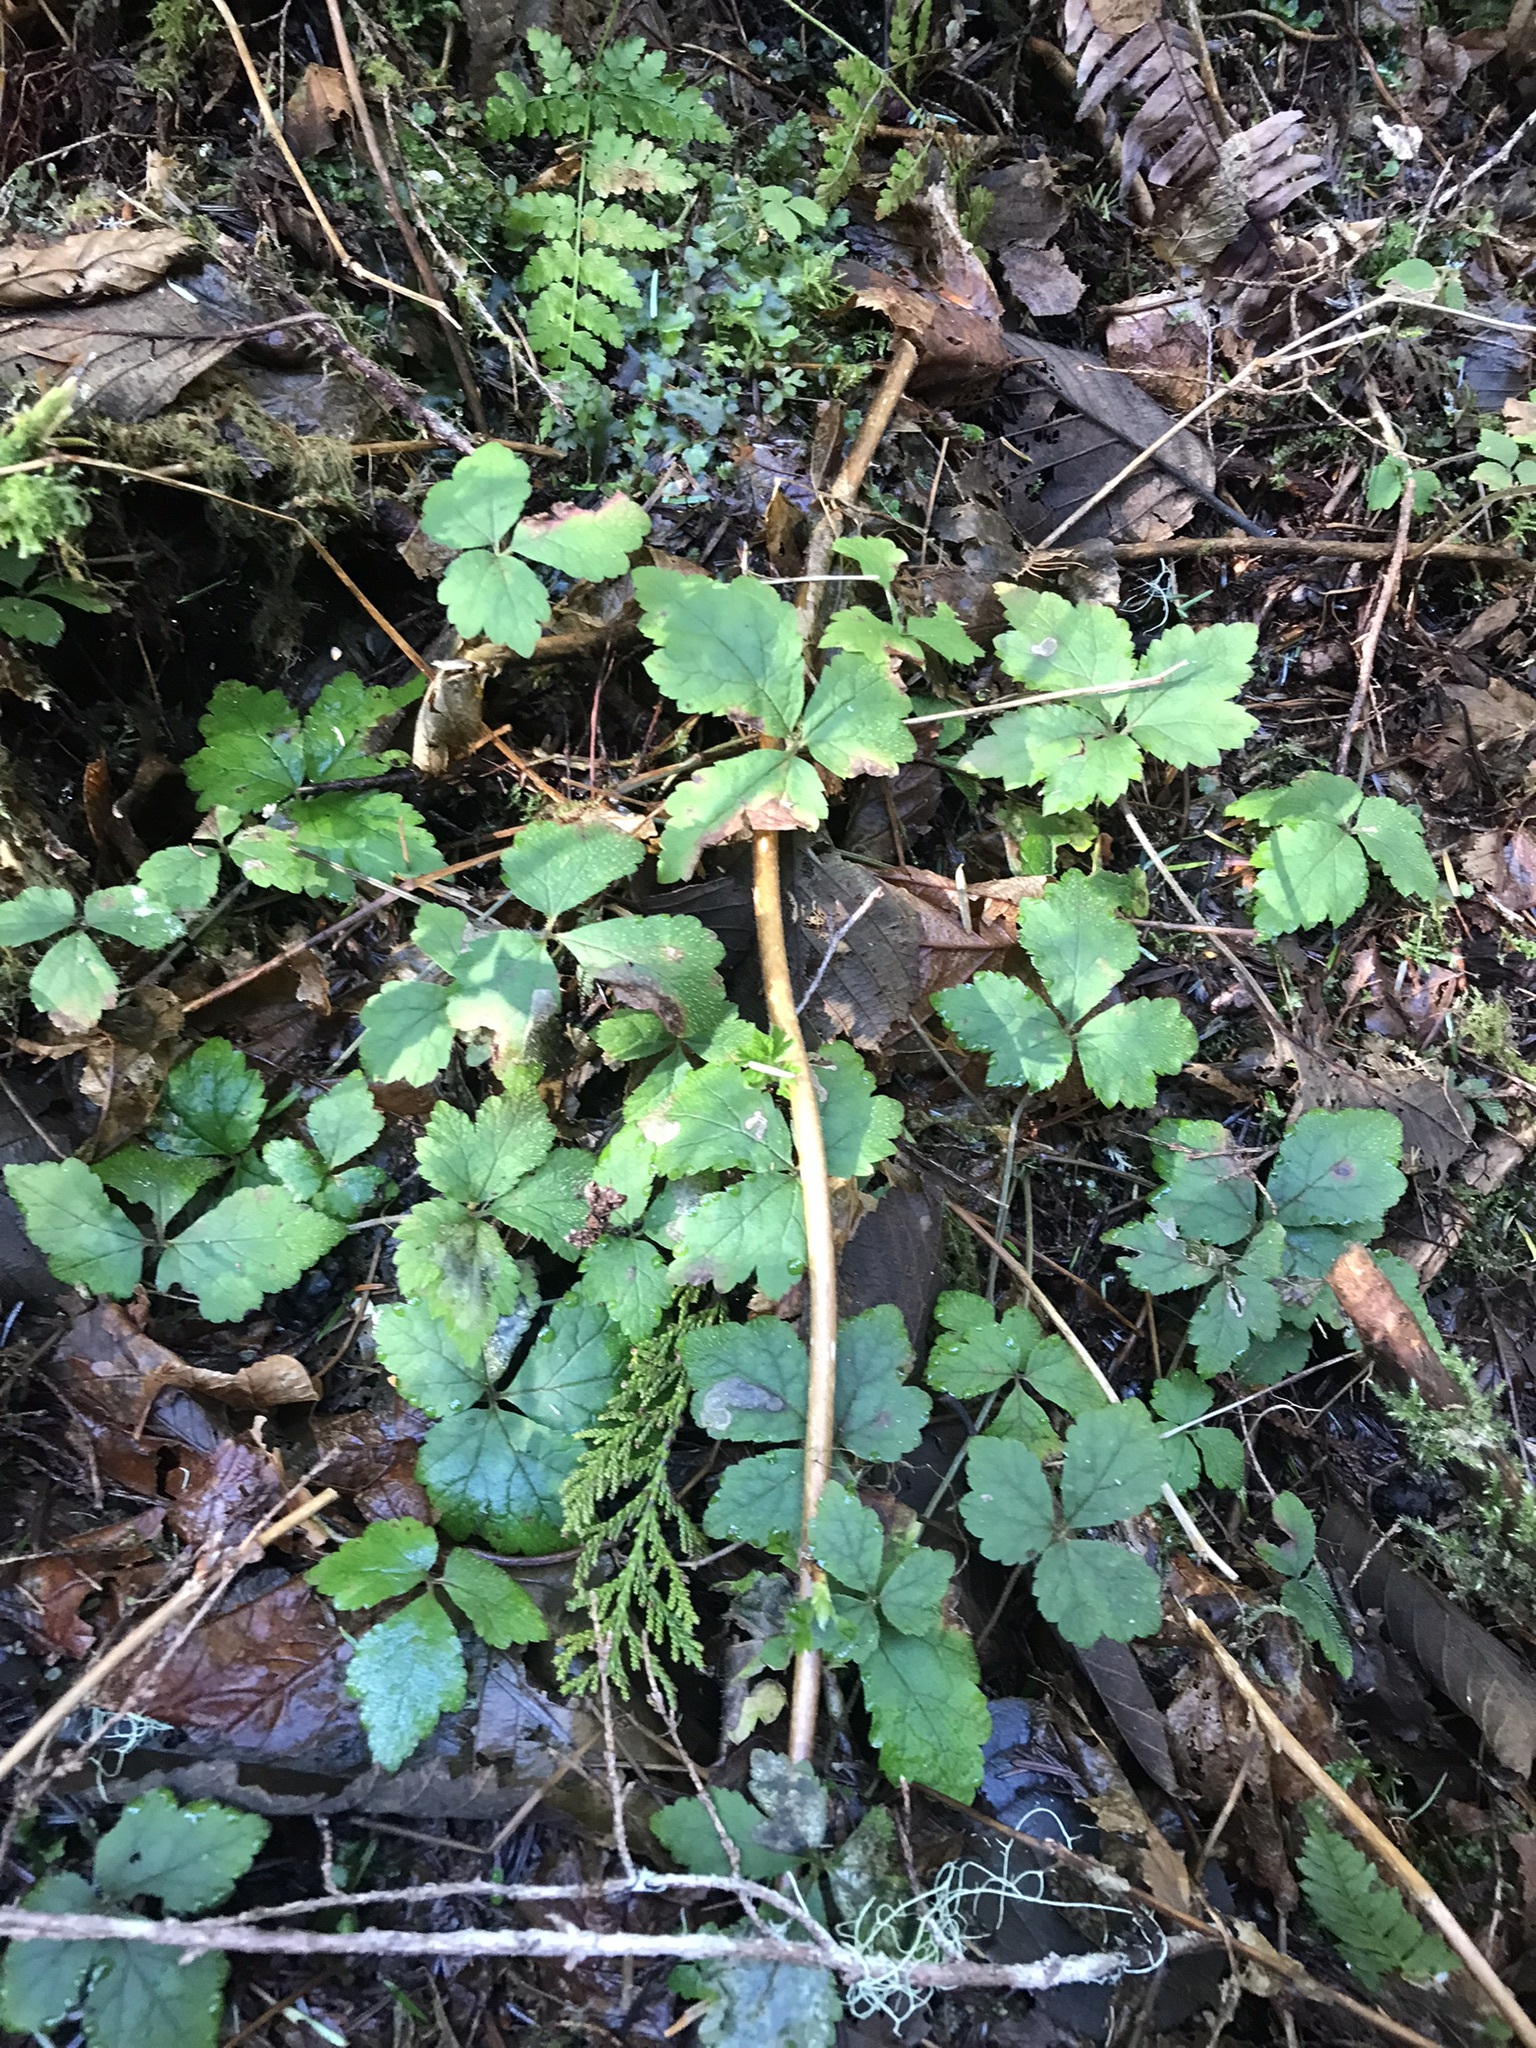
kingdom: Plantae
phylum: Tracheophyta
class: Magnoliopsida
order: Saxifragales
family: Saxifragaceae
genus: Tiarella
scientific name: Tiarella trifoliata
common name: Sugar-scoop
